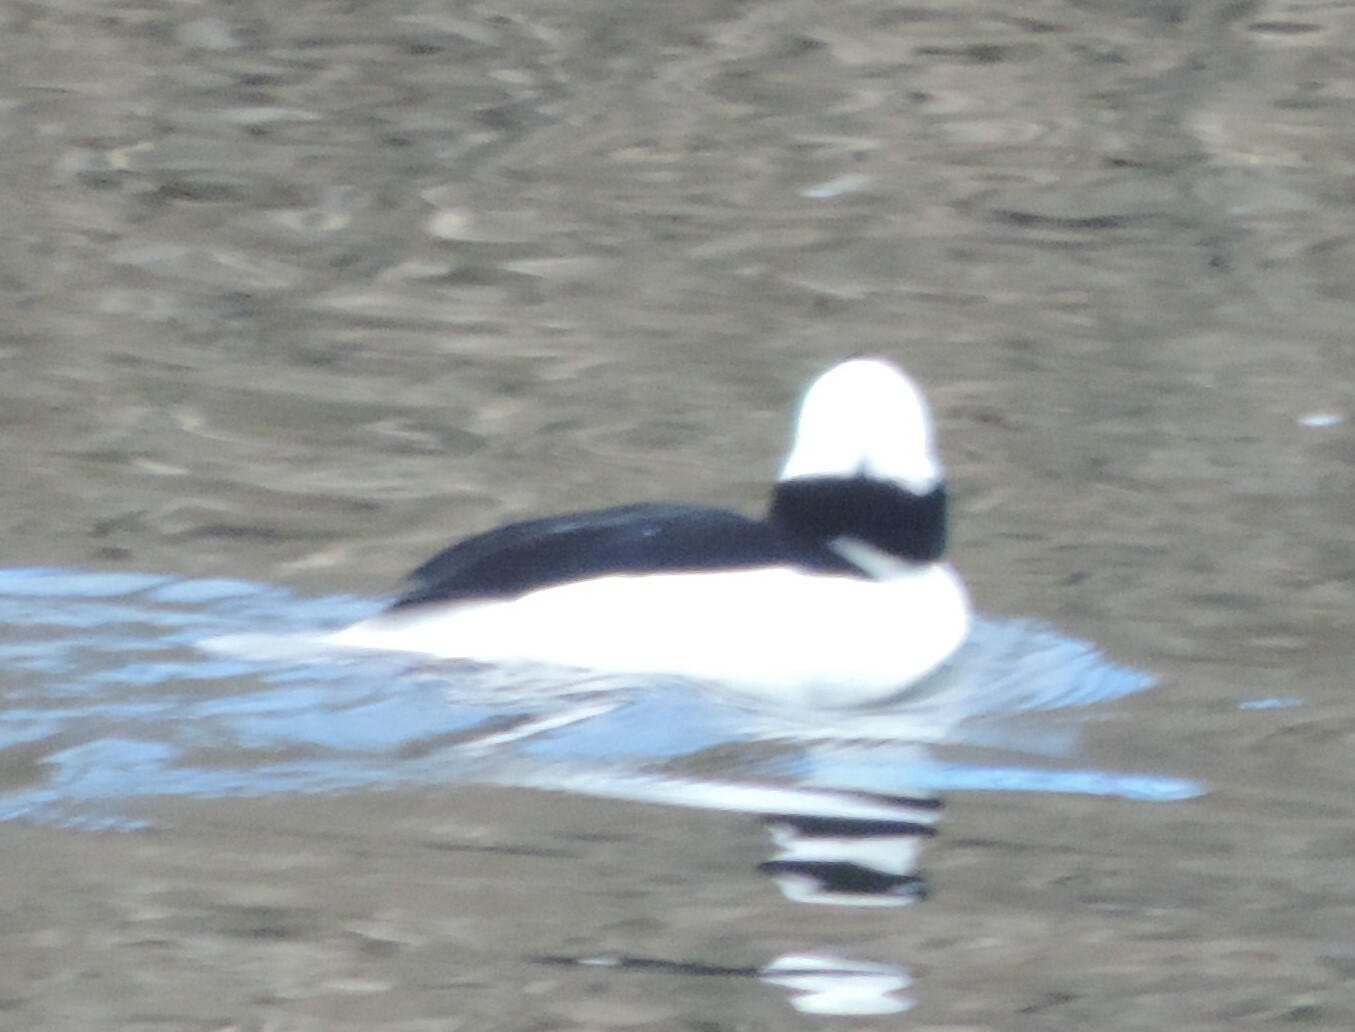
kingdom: Animalia
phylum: Chordata
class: Aves
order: Anseriformes
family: Anatidae
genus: Bucephala
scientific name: Bucephala albeola
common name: Bufflehead
